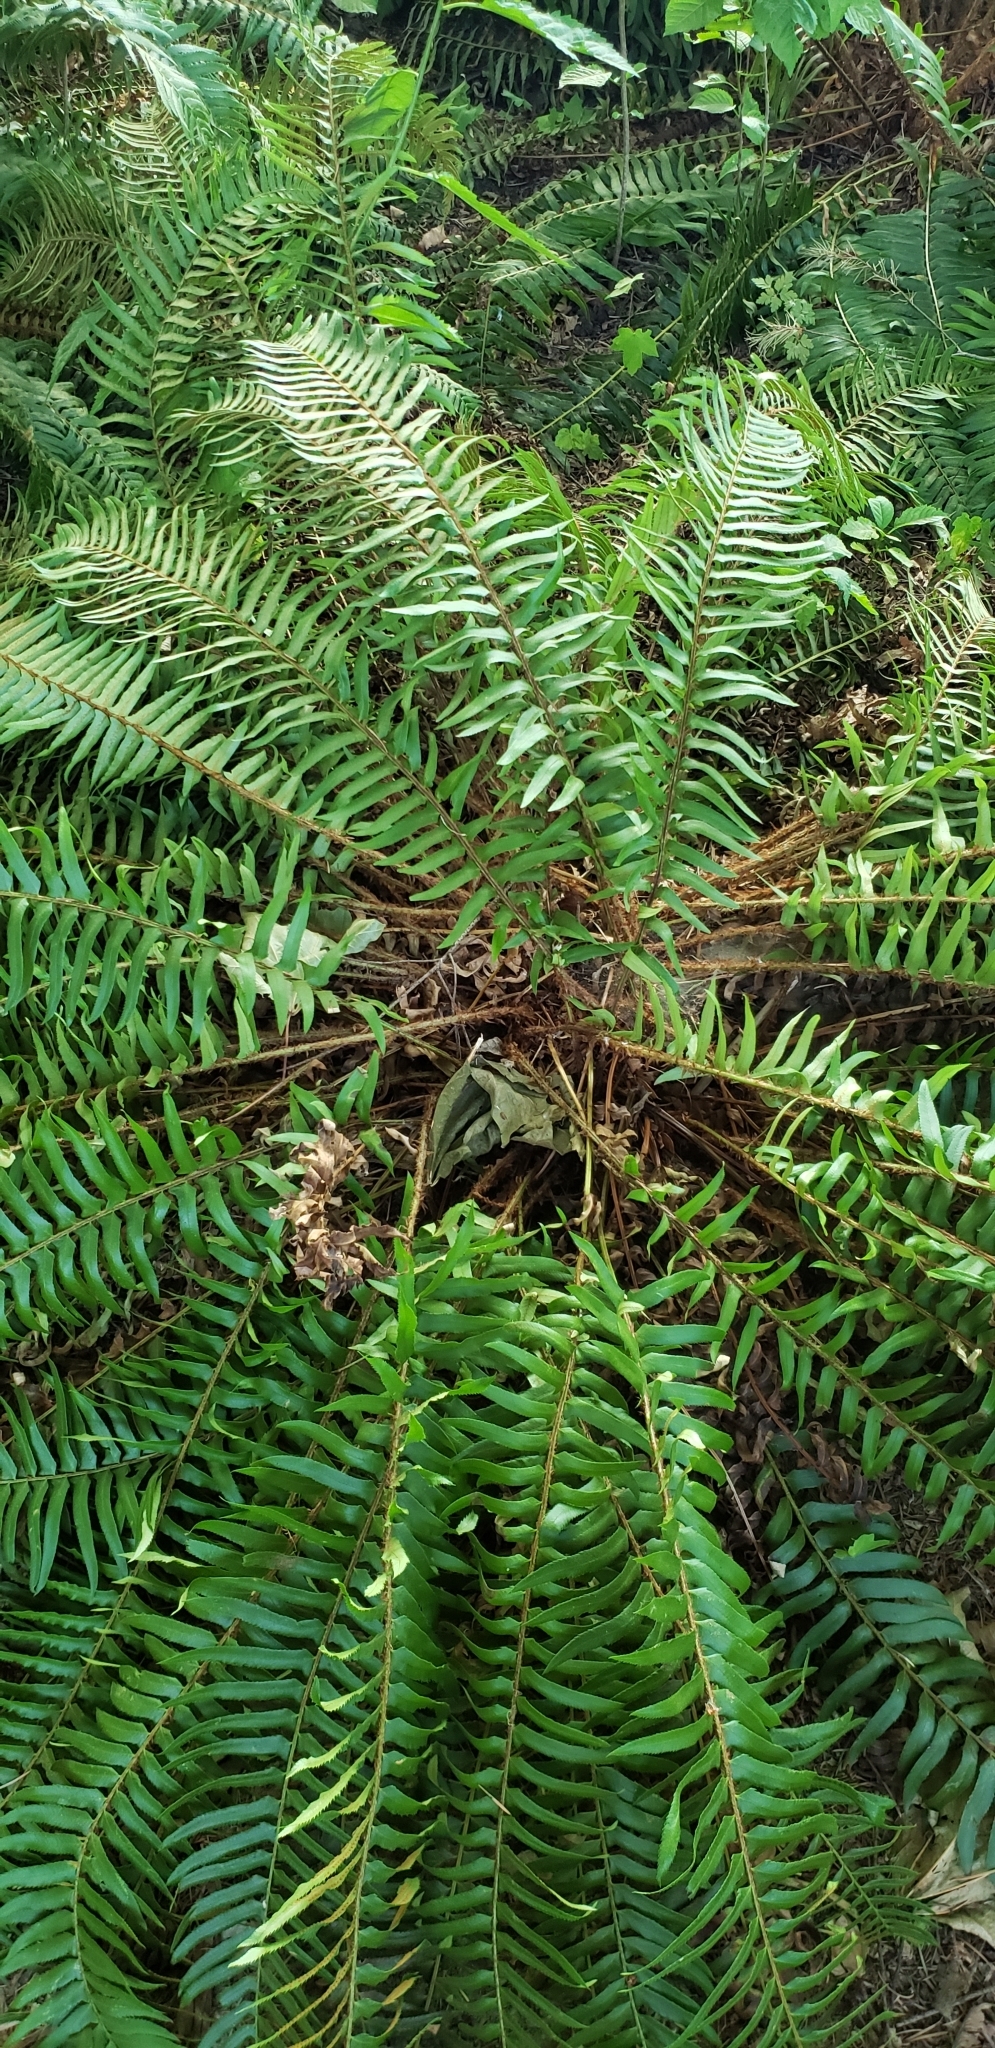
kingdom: Plantae
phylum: Tracheophyta
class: Polypodiopsida
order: Polypodiales
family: Dryopteridaceae
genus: Polystichum
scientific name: Polystichum munitum
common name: Western sword-fern
